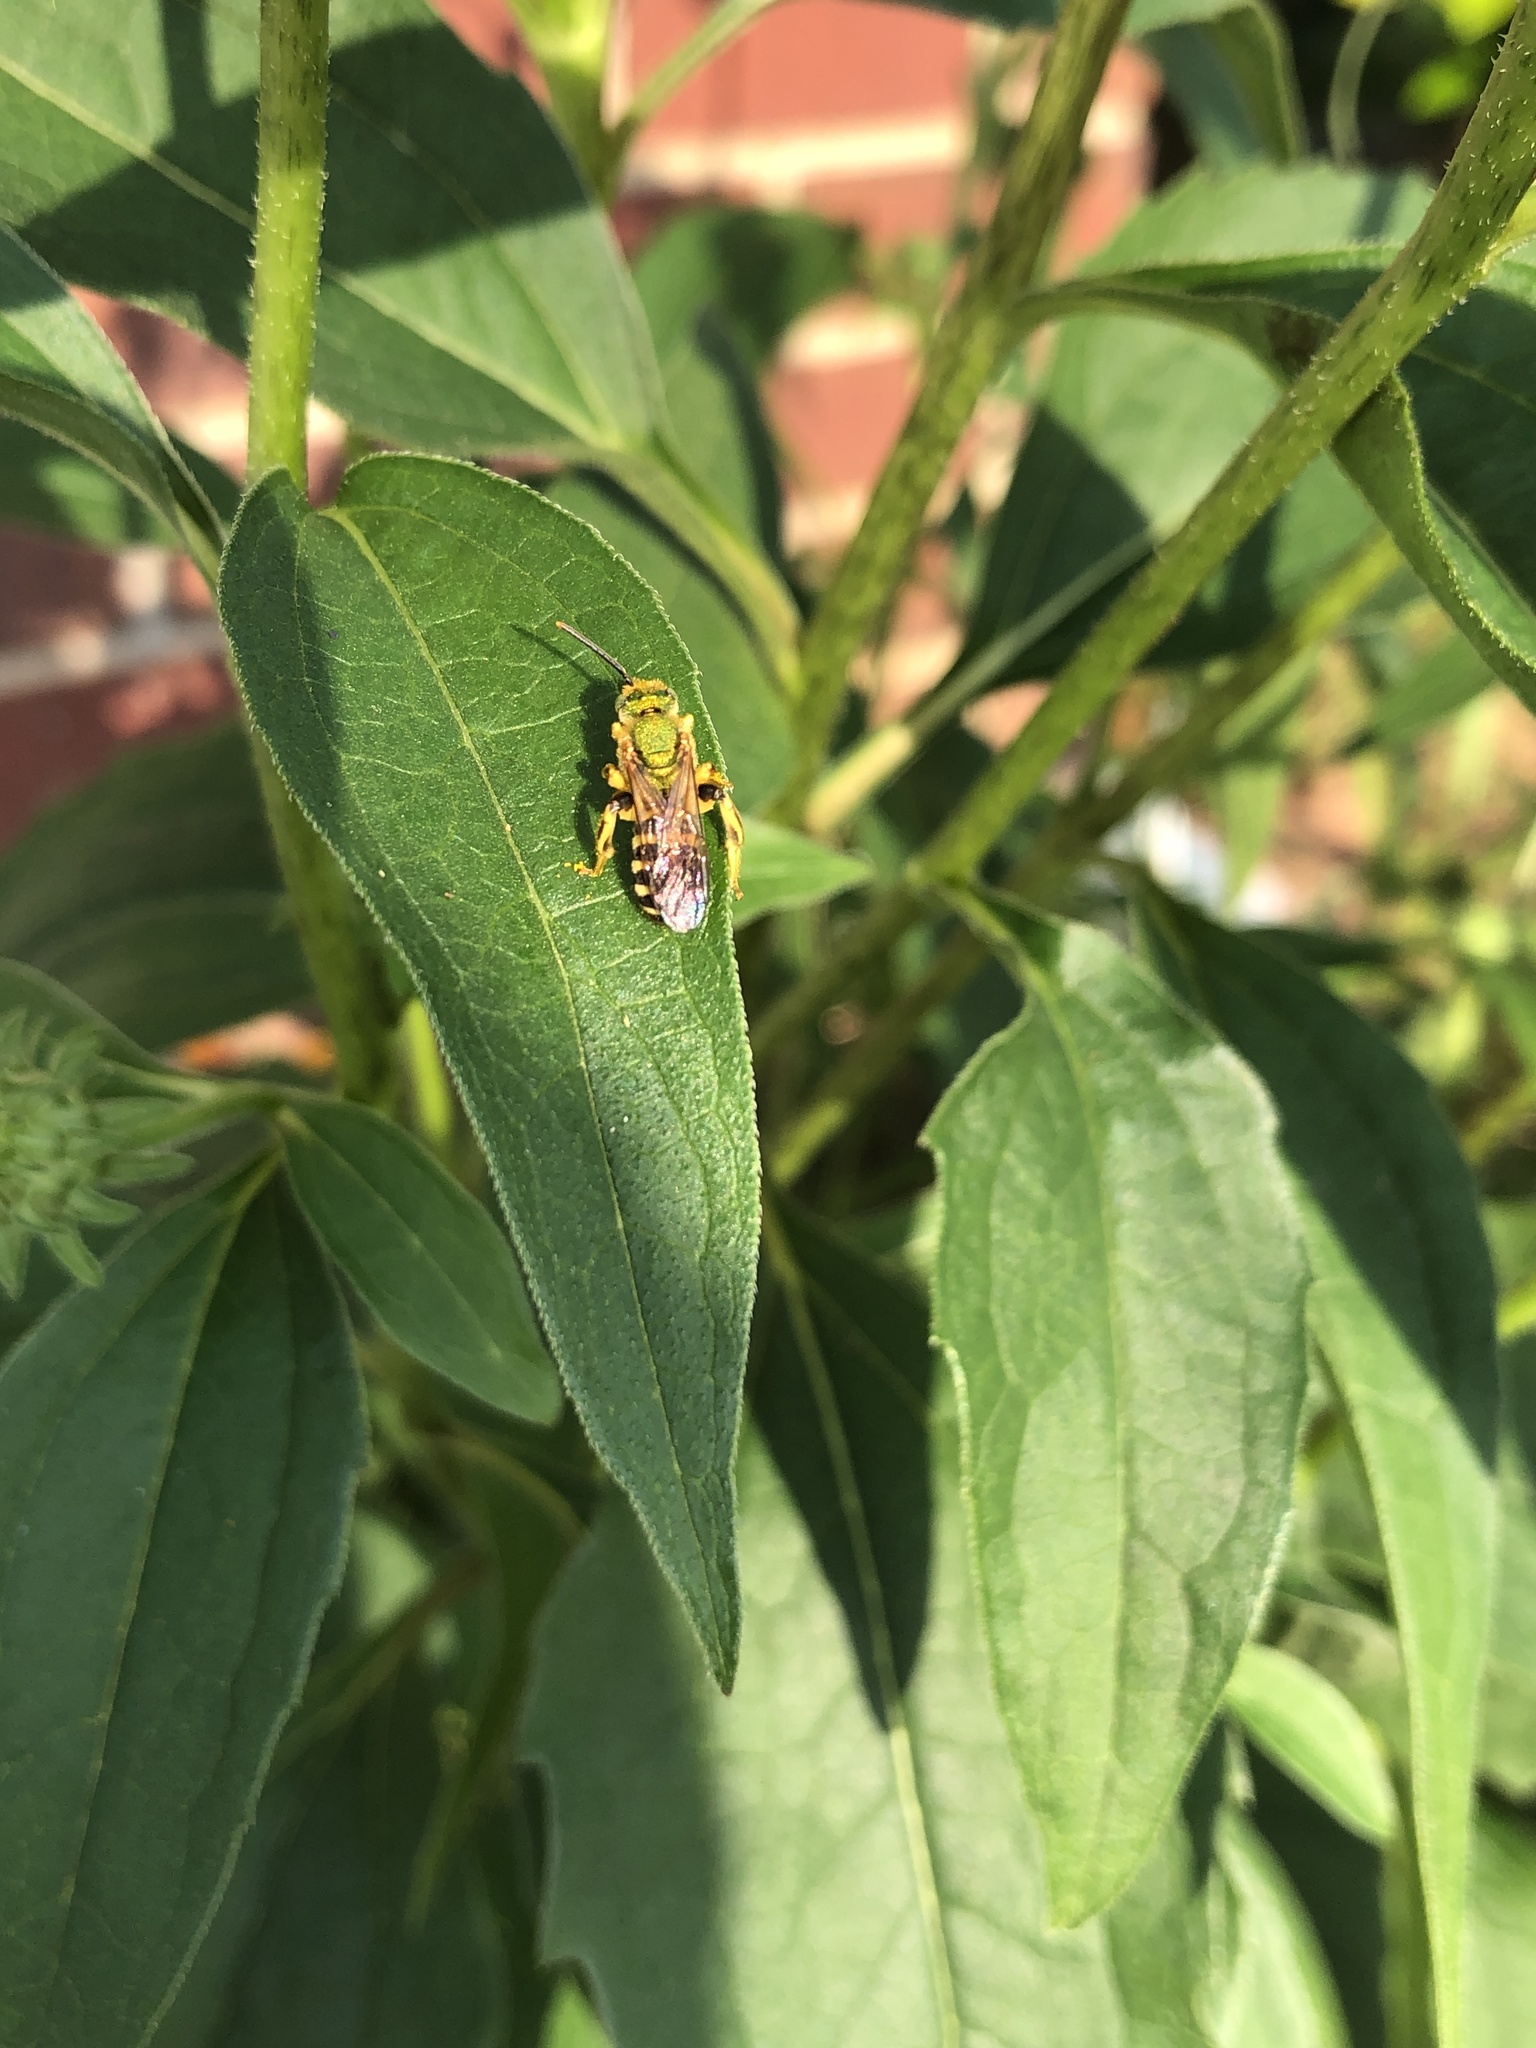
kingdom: Animalia
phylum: Arthropoda
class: Insecta
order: Hymenoptera
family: Halictidae
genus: Agapostemon
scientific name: Agapostemon splendens
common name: Brown-winged striped sweat bee
